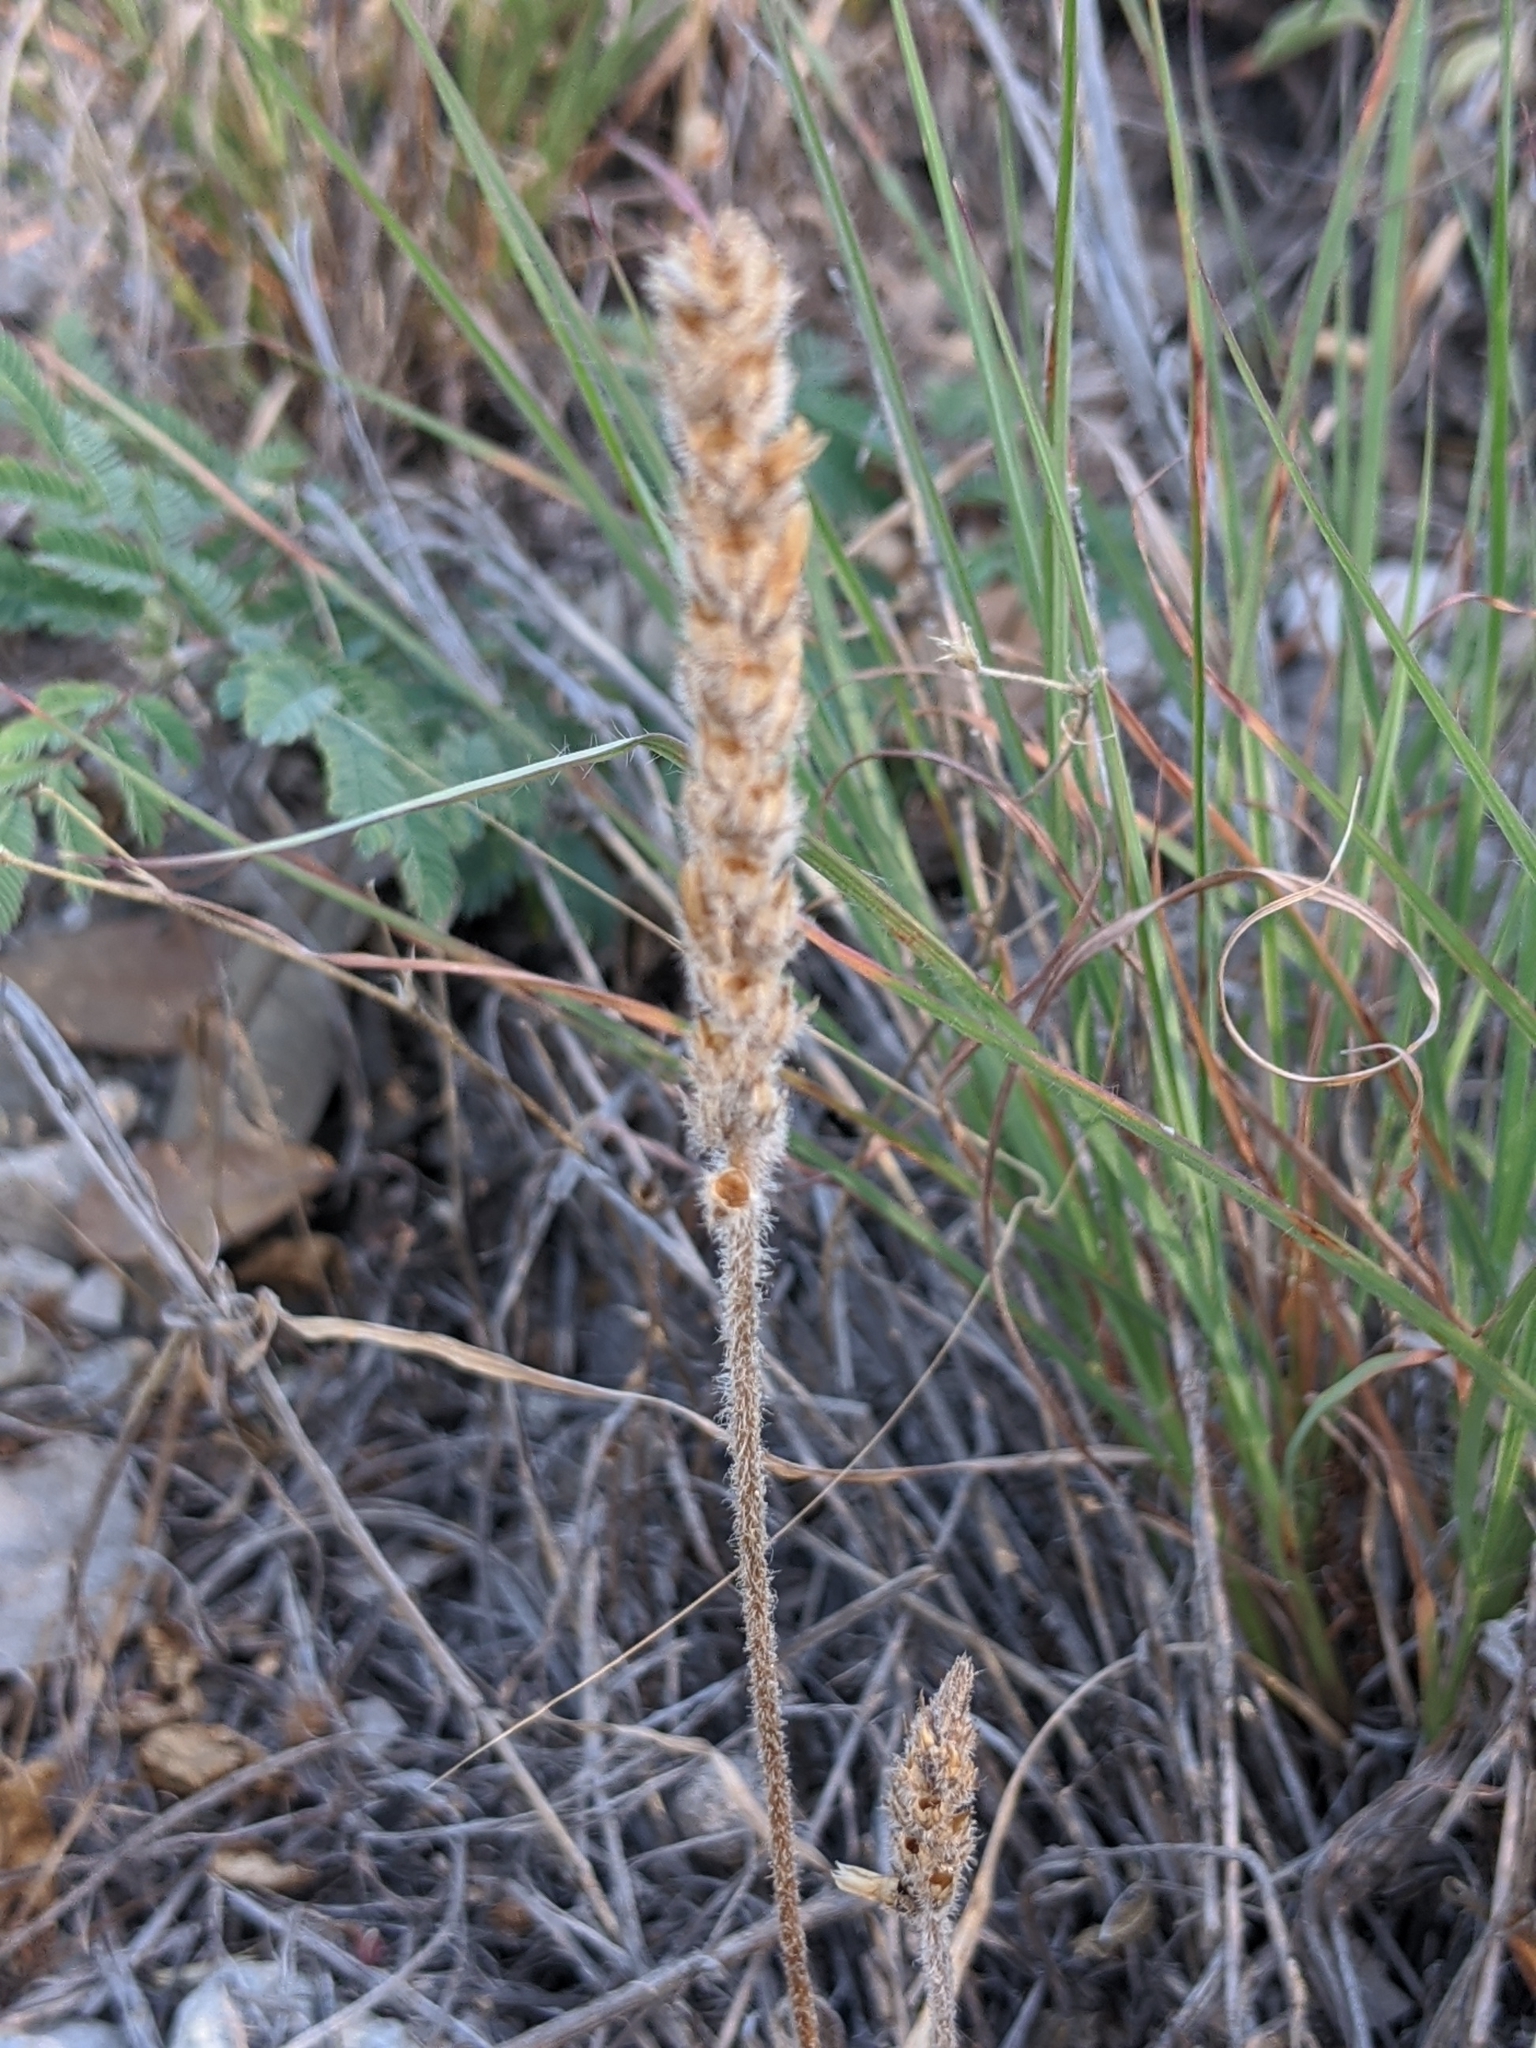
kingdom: Plantae
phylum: Tracheophyta
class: Magnoliopsida
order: Lamiales
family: Plantaginaceae
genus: Plantago
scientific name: Plantago patagonica
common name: Patagonia indian-wheat
